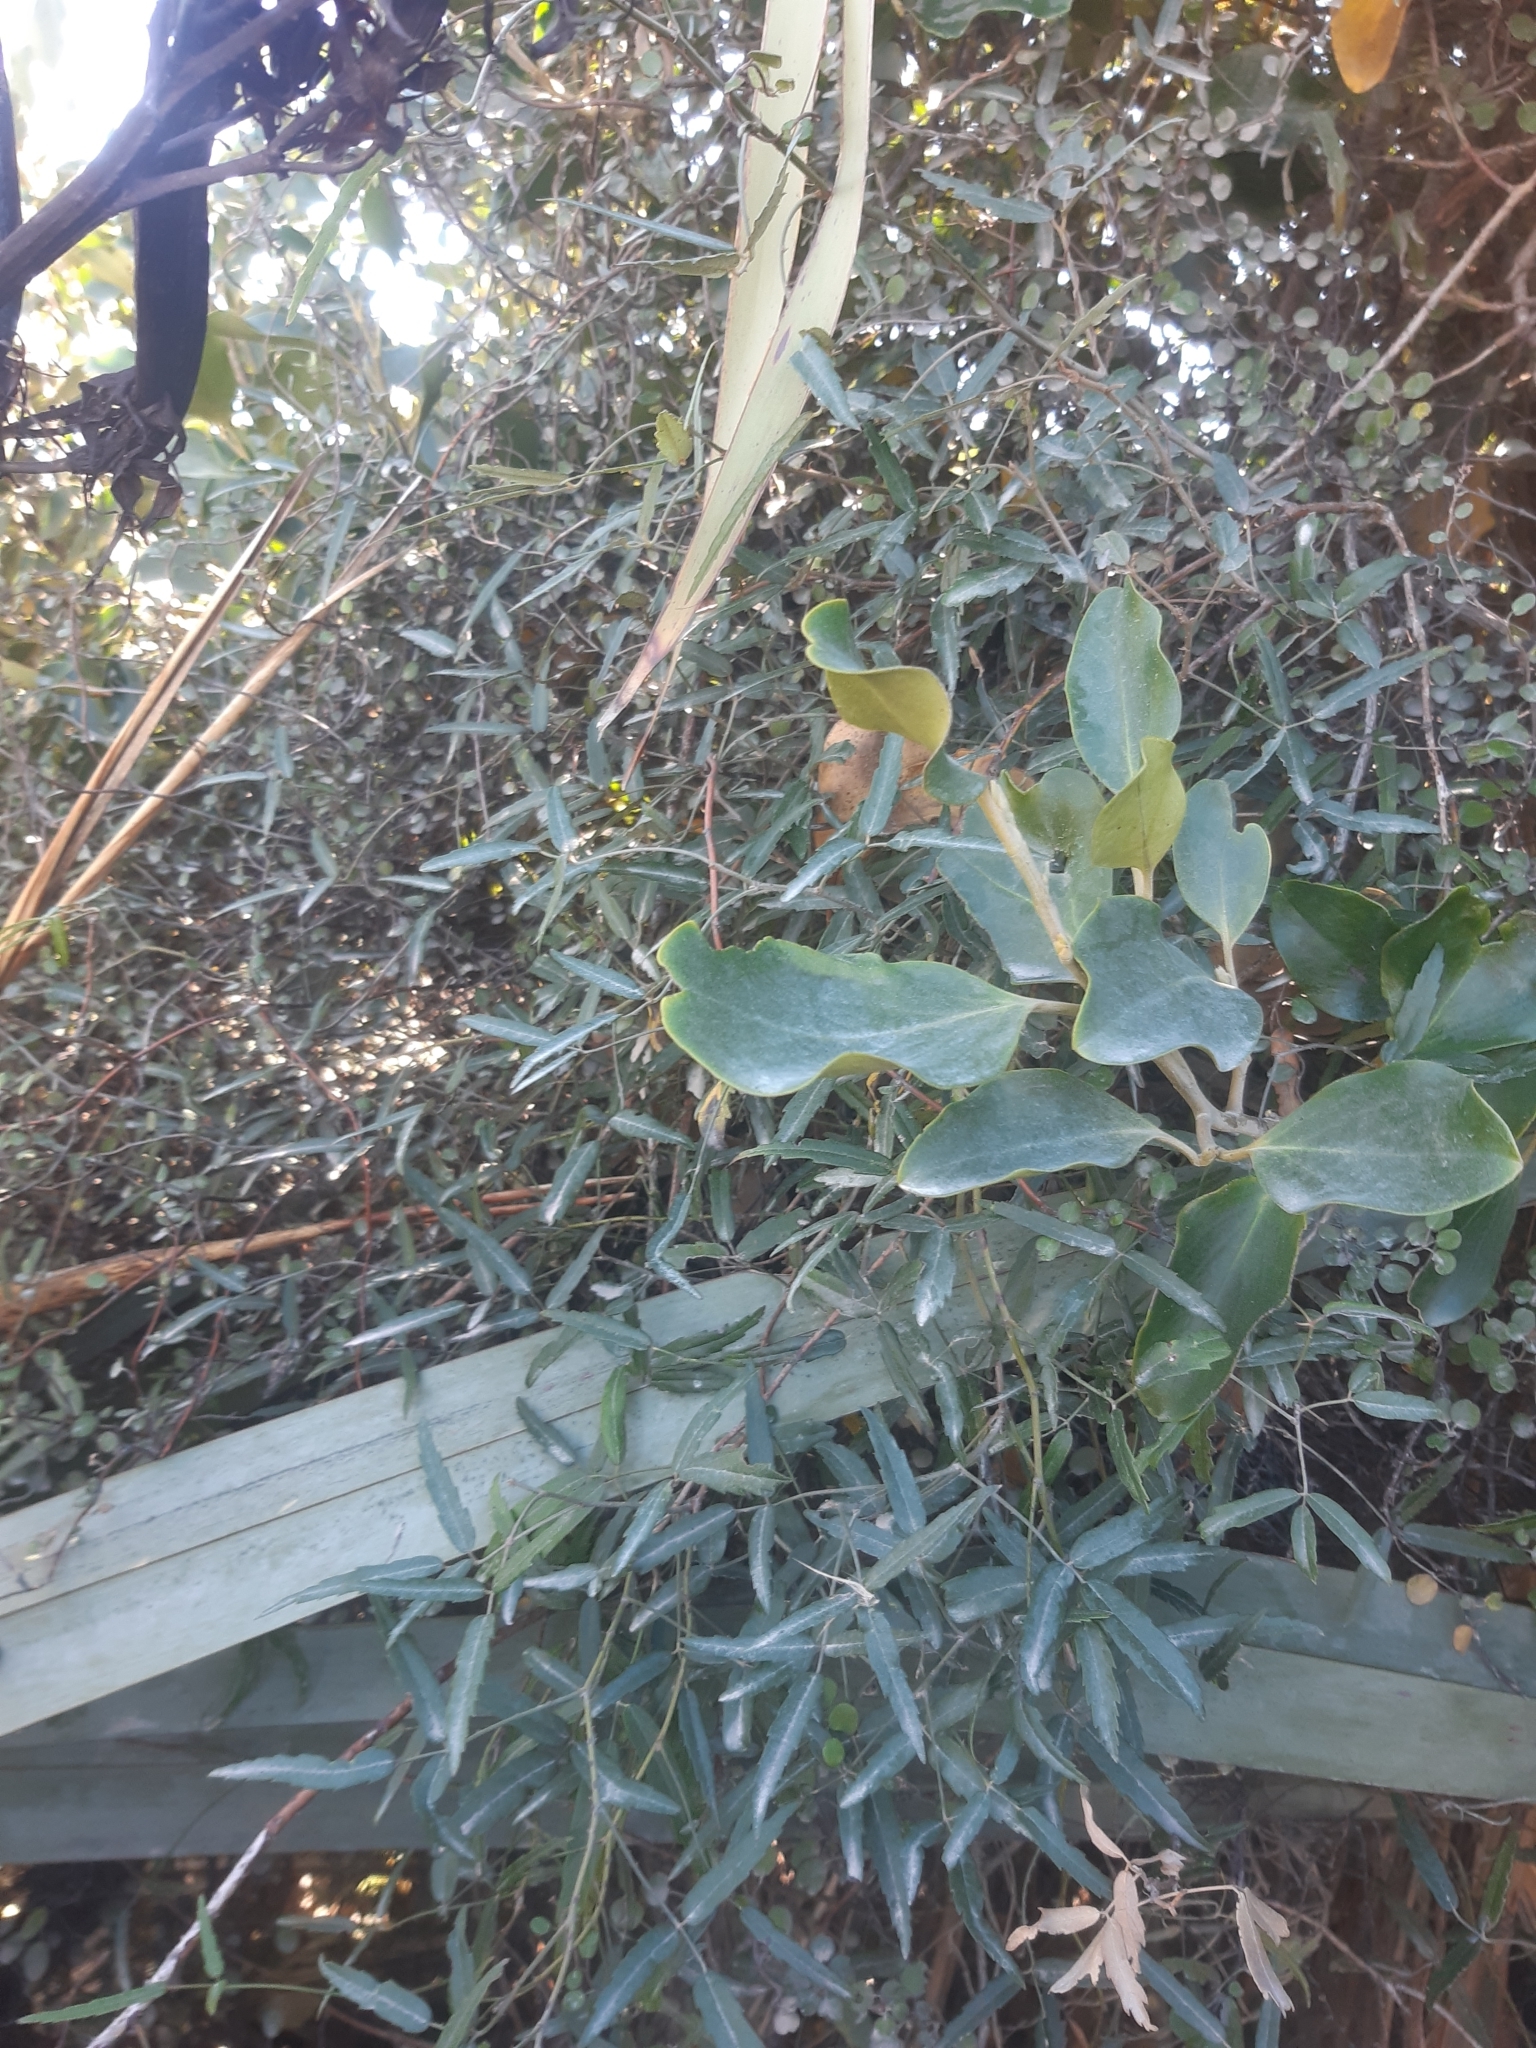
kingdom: Plantae
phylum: Tracheophyta
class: Magnoliopsida
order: Rosales
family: Rosaceae
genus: Rubus
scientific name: Rubus schmidelioides
